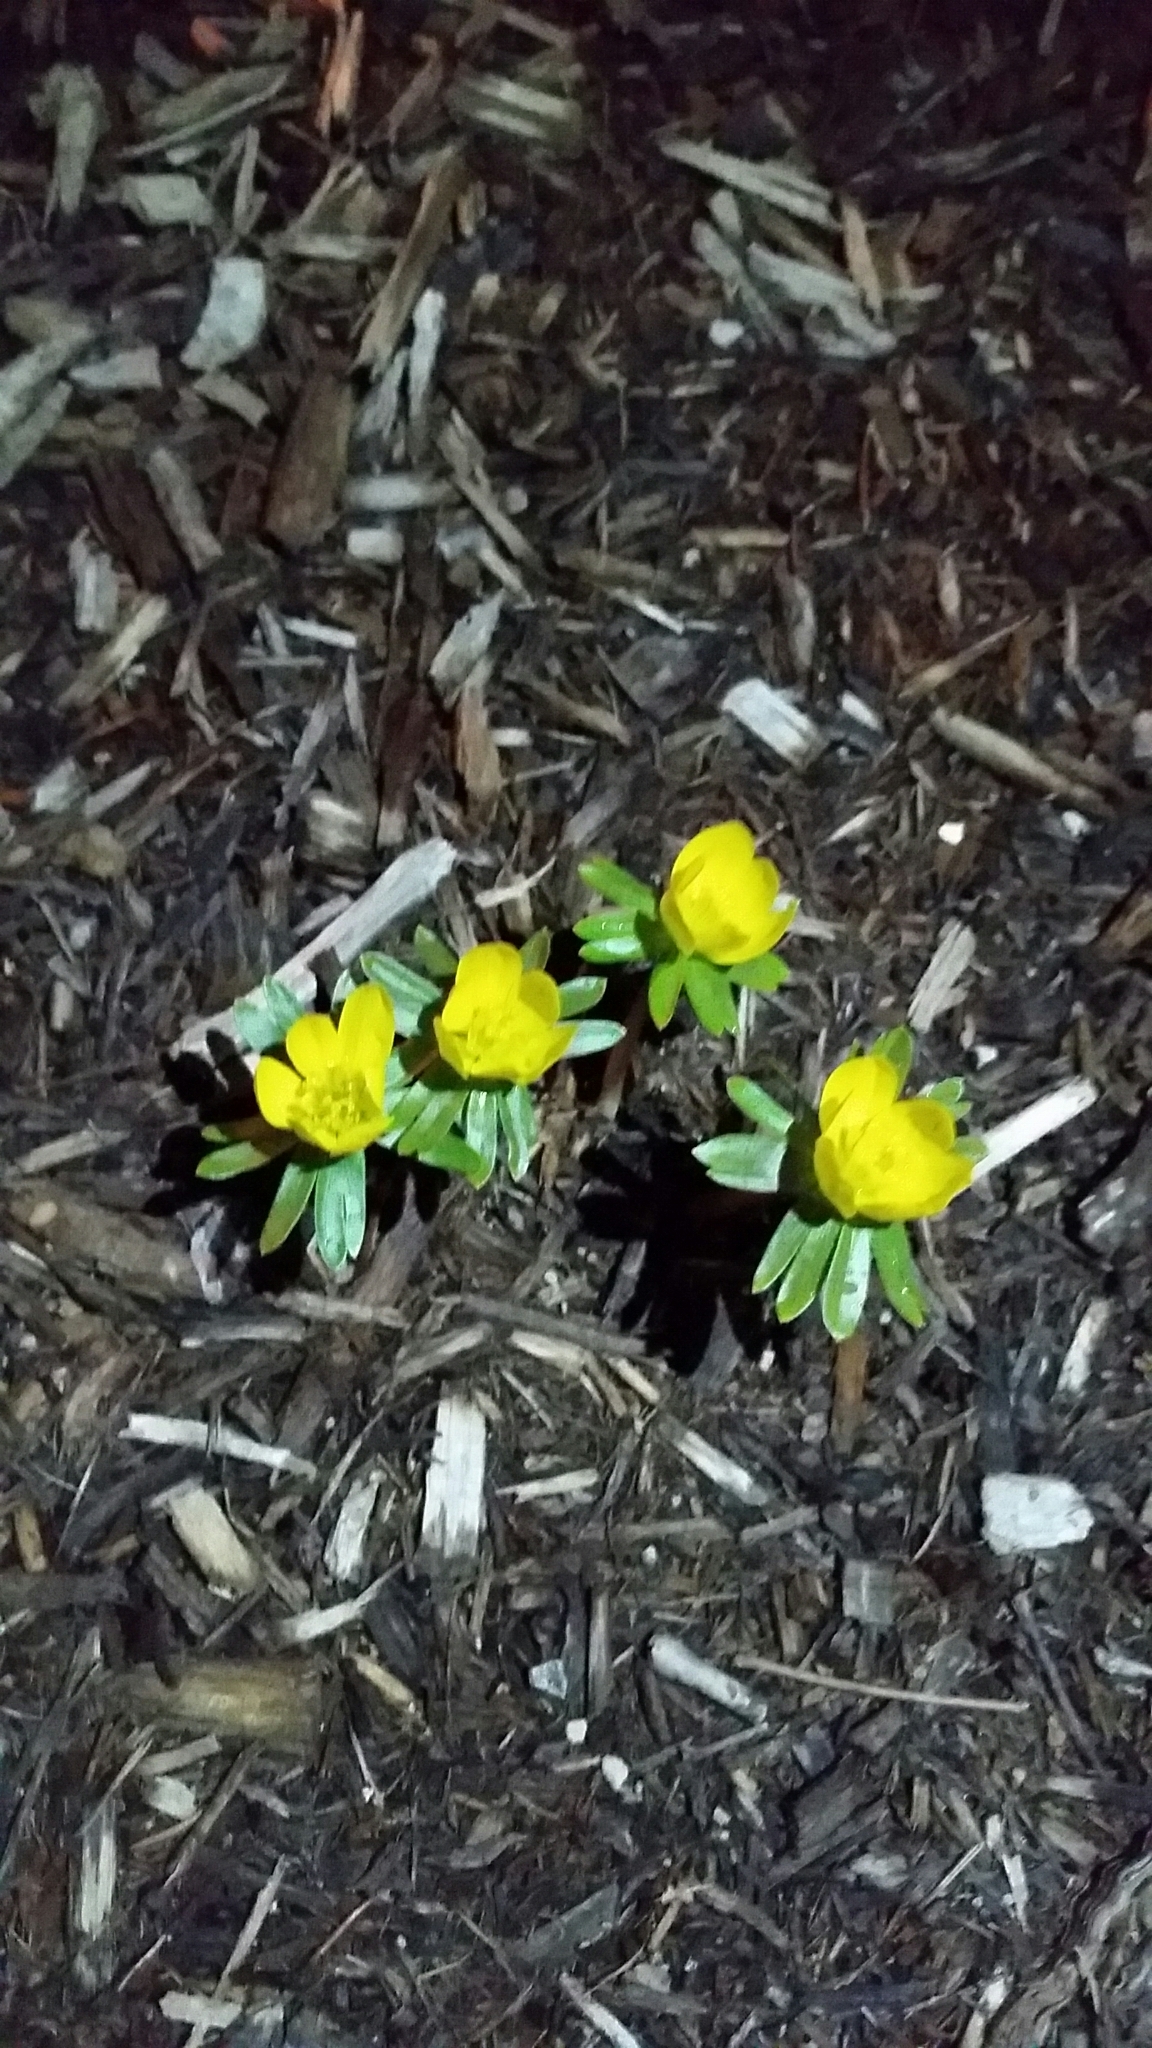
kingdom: Plantae
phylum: Tracheophyta
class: Magnoliopsida
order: Ranunculales
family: Ranunculaceae
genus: Eranthis
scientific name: Eranthis hyemalis
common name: Winter aconite
